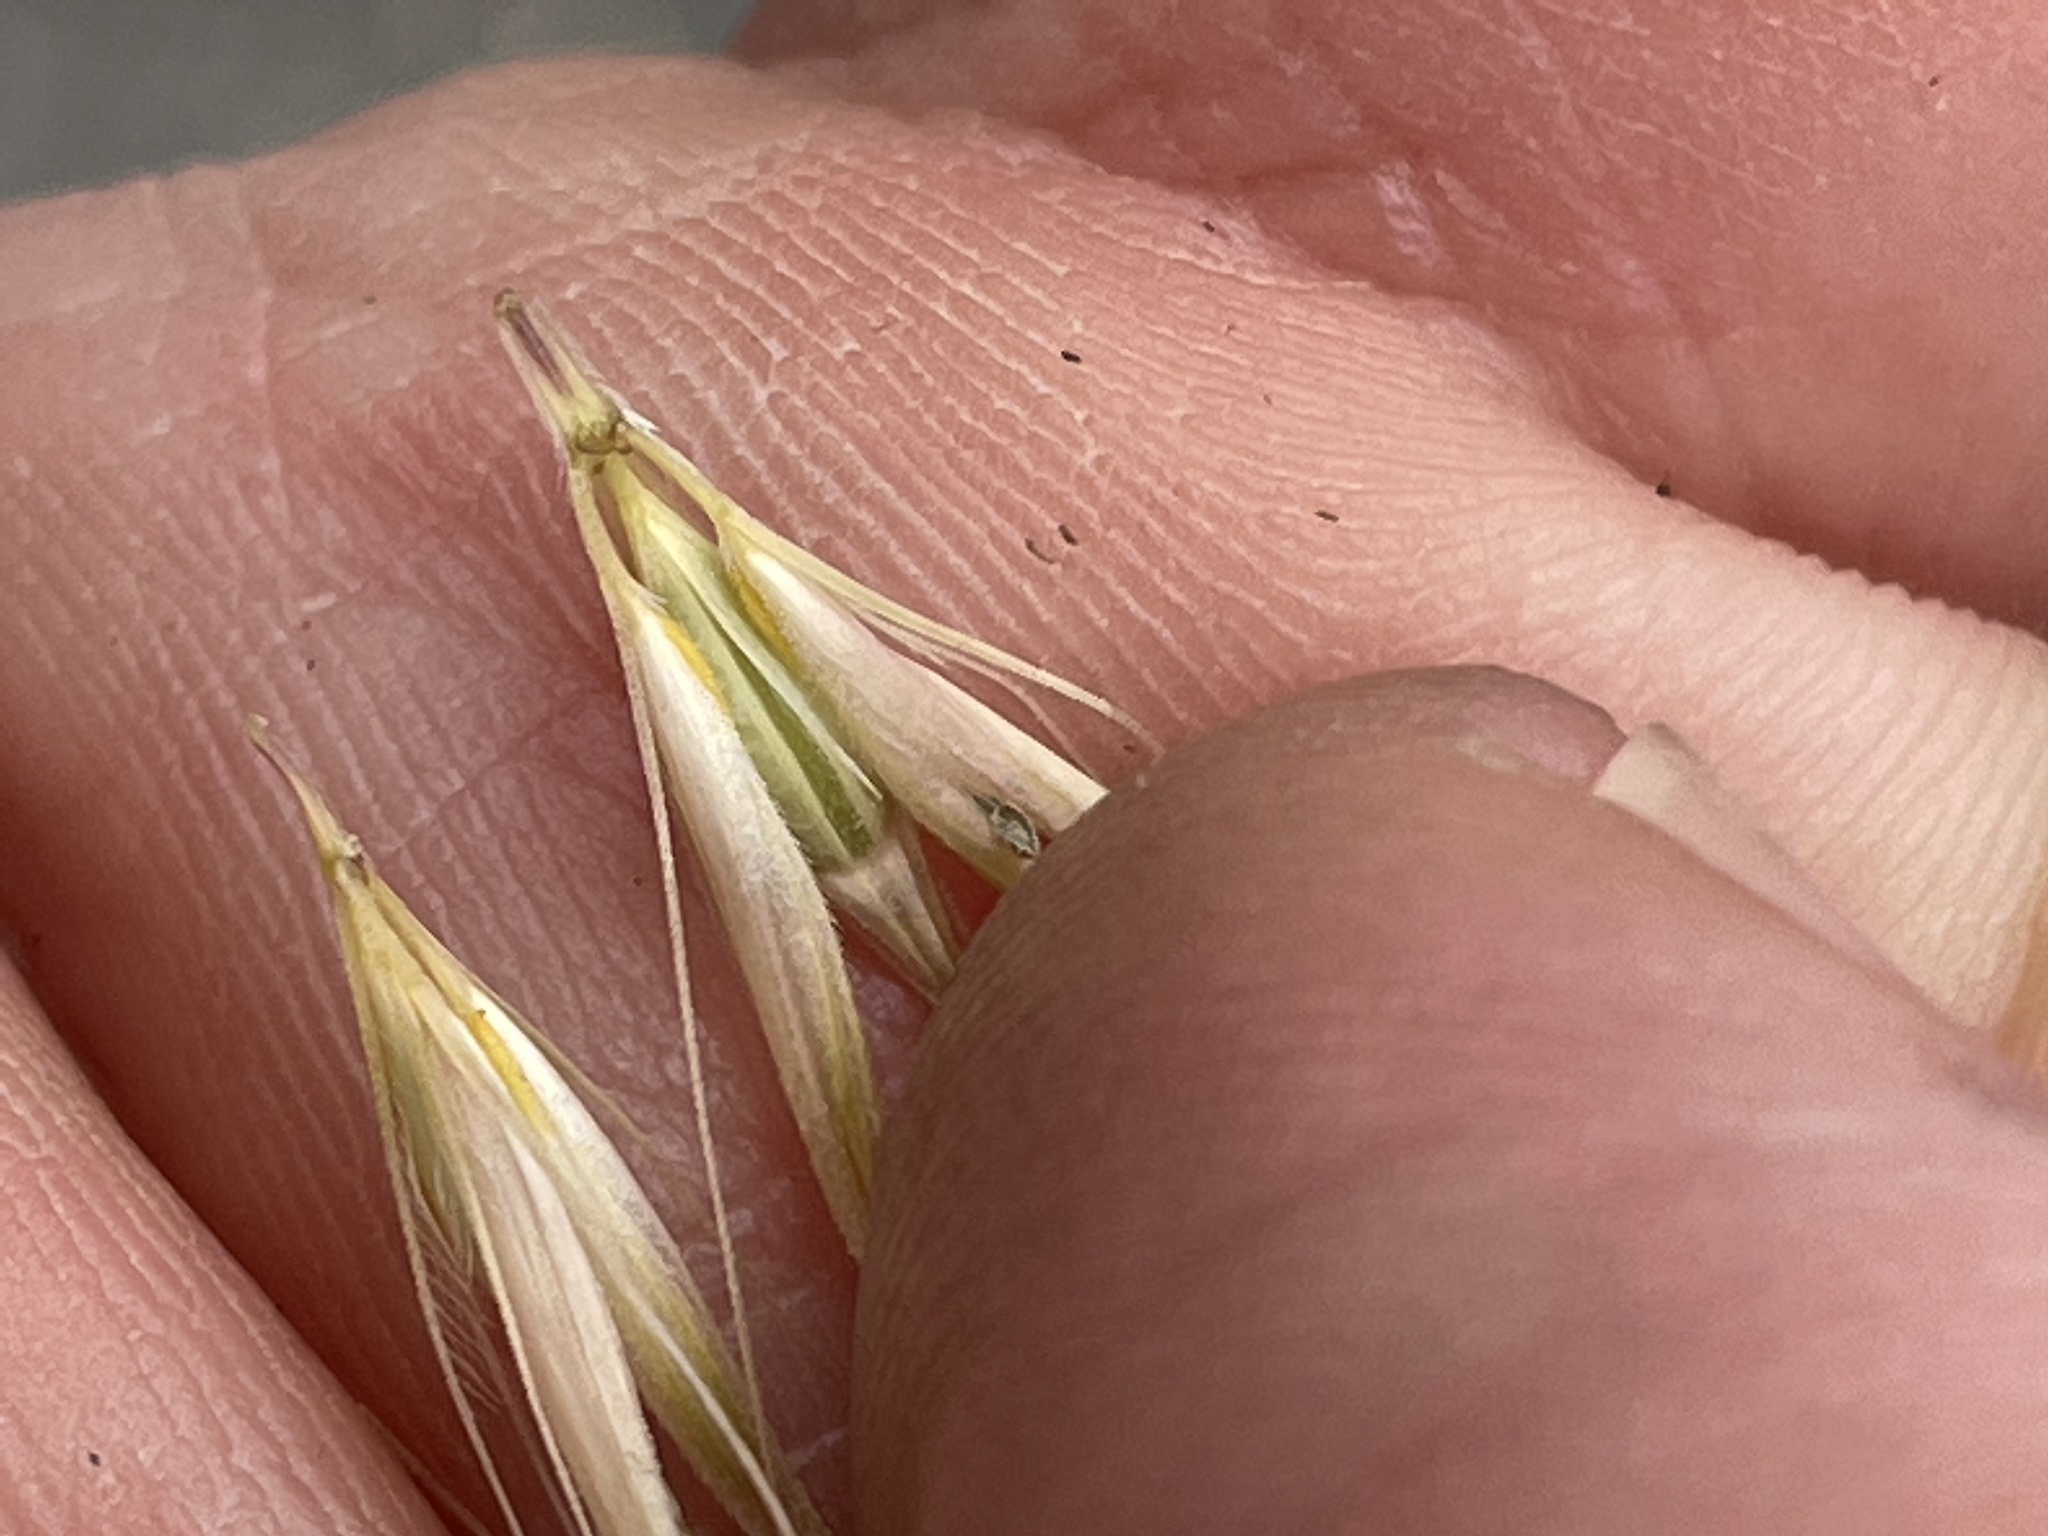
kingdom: Plantae
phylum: Tracheophyta
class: Liliopsida
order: Poales
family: Poaceae
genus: Hordeum
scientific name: Hordeum murinum
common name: Wall barley
